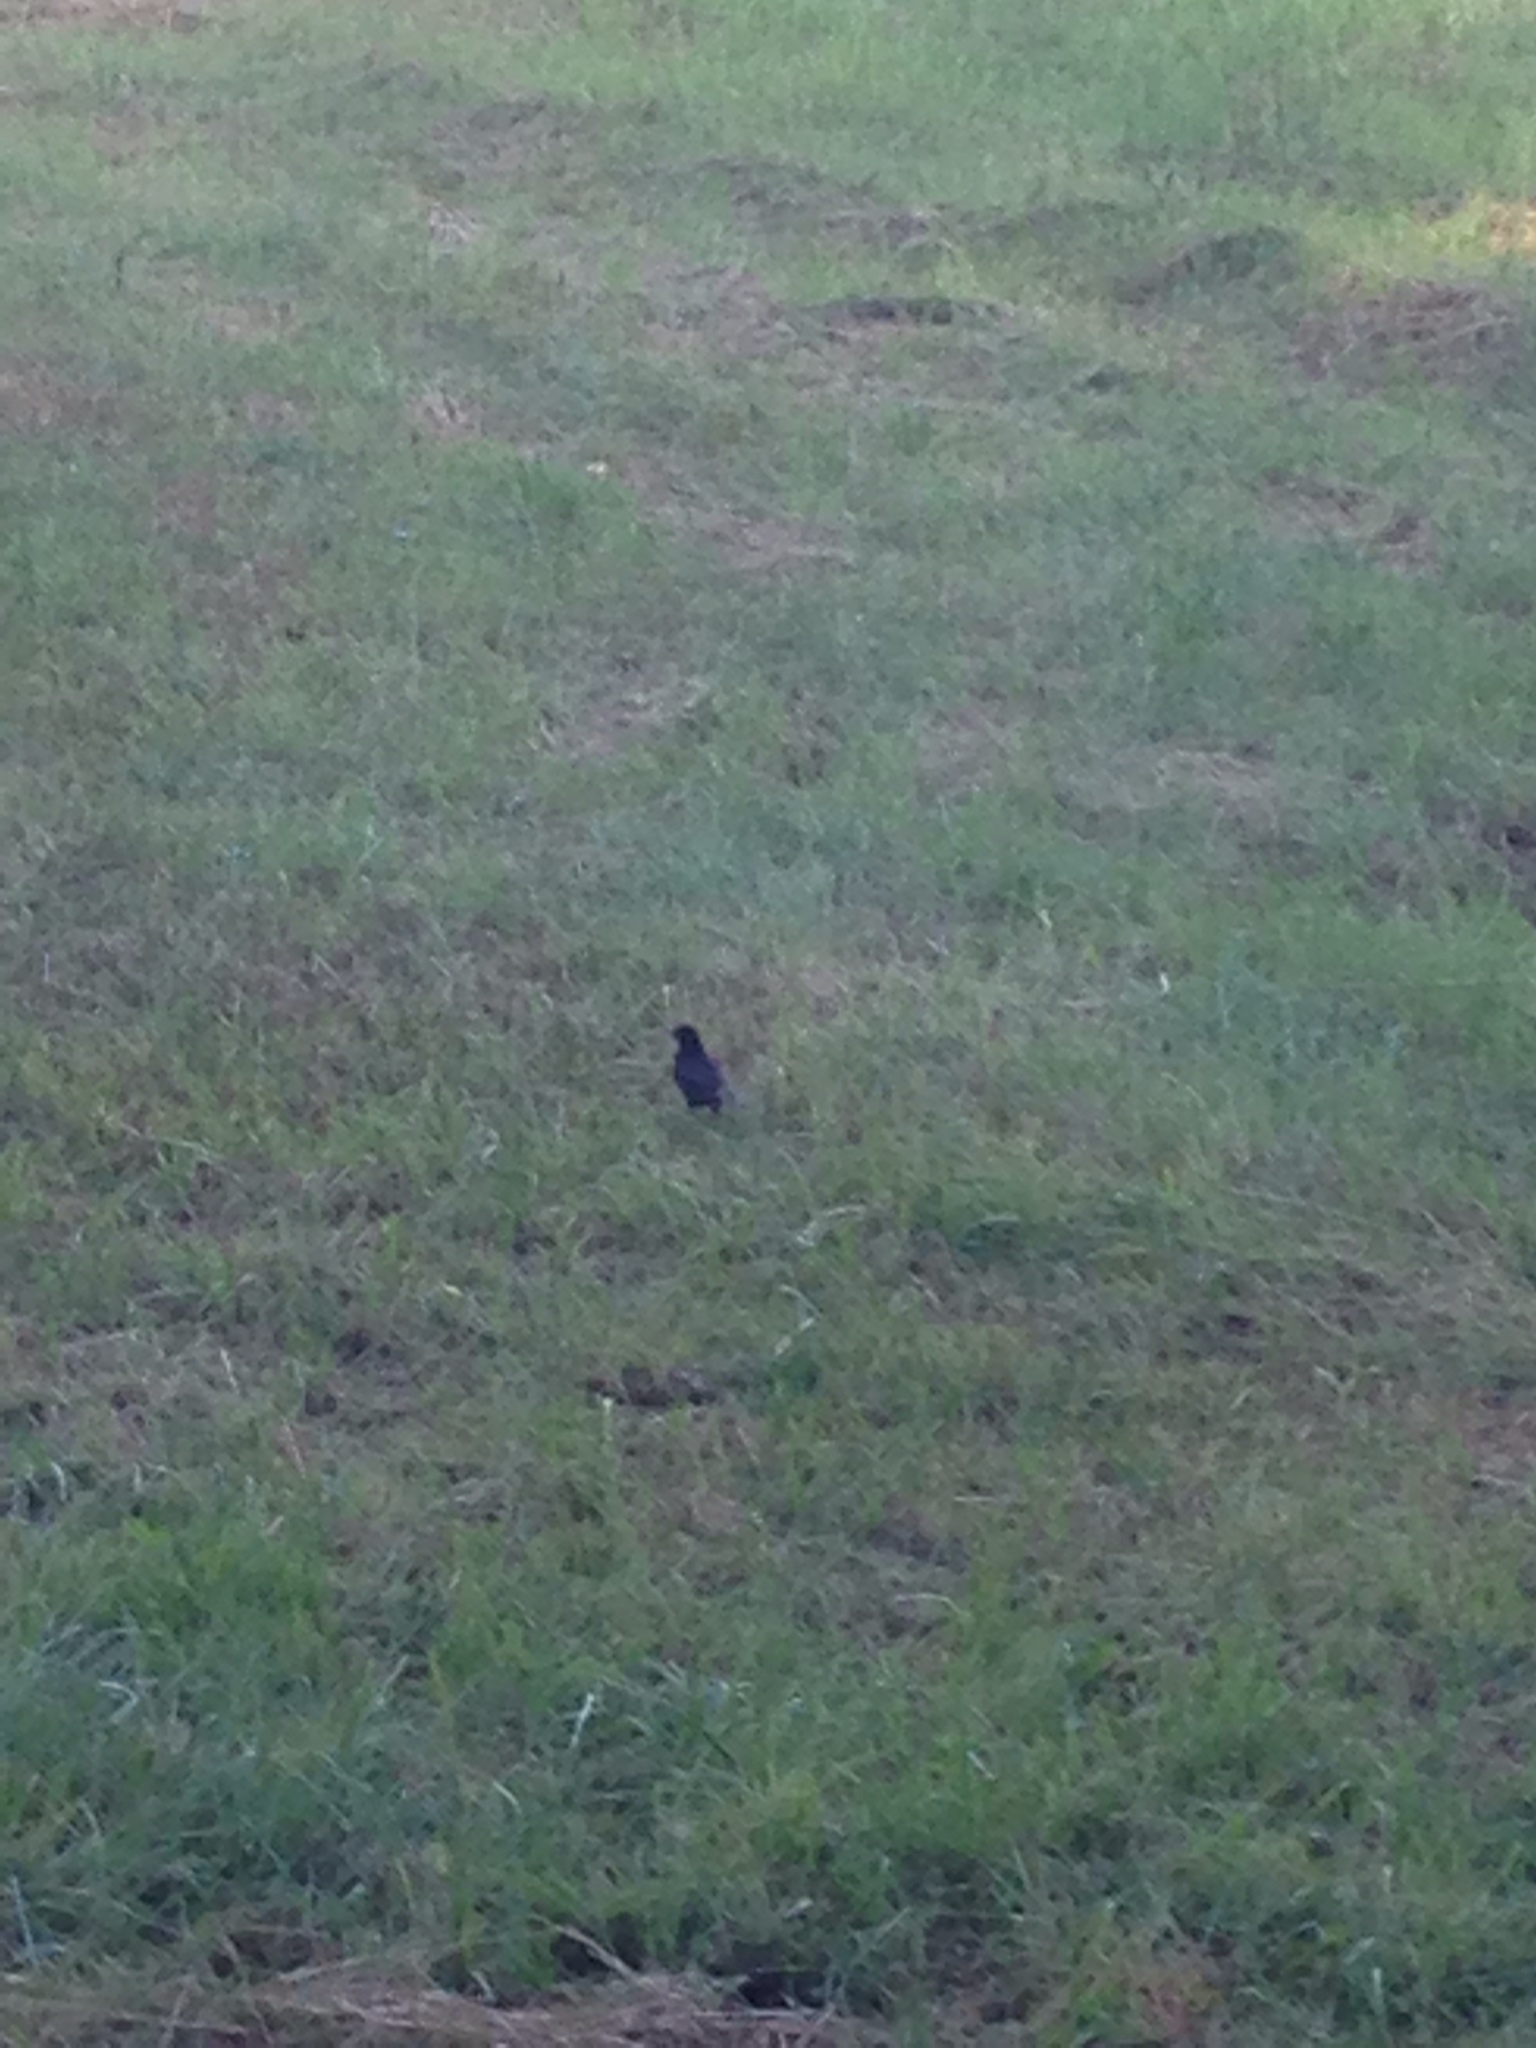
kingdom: Animalia
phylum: Chordata
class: Aves
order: Passeriformes
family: Turdidae
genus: Turdus
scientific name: Turdus merula
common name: Common blackbird
